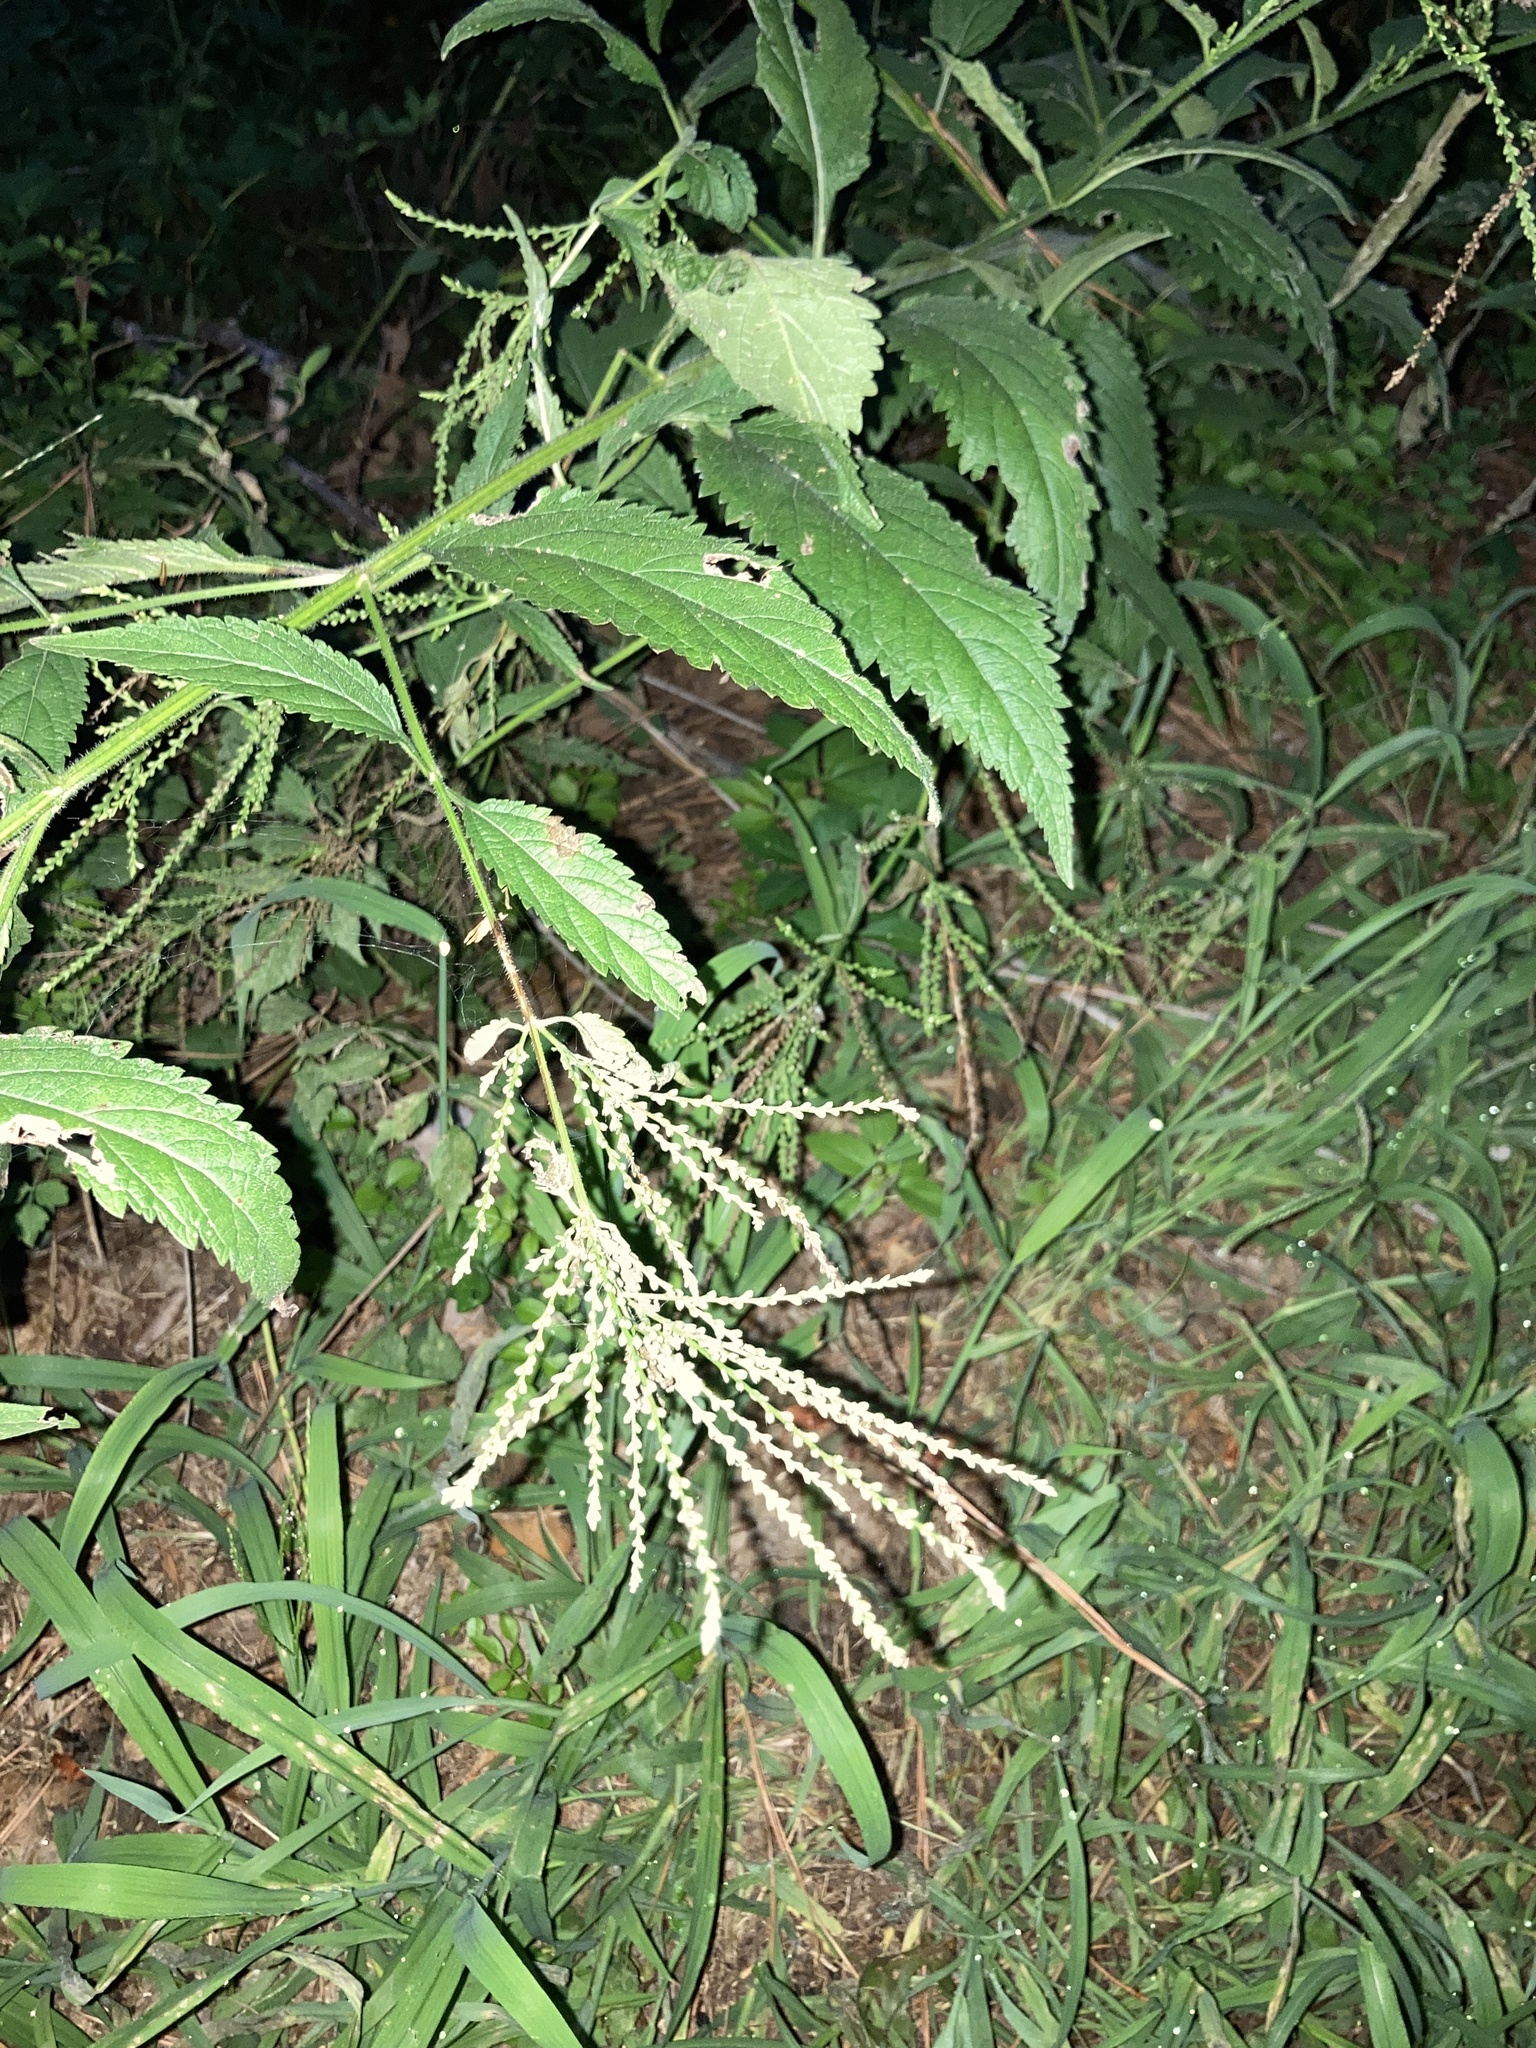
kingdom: Plantae
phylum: Tracheophyta
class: Magnoliopsida
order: Lamiales
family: Verbenaceae
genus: Verbena
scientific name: Verbena urticifolia
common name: Nettle-leaved vervain
